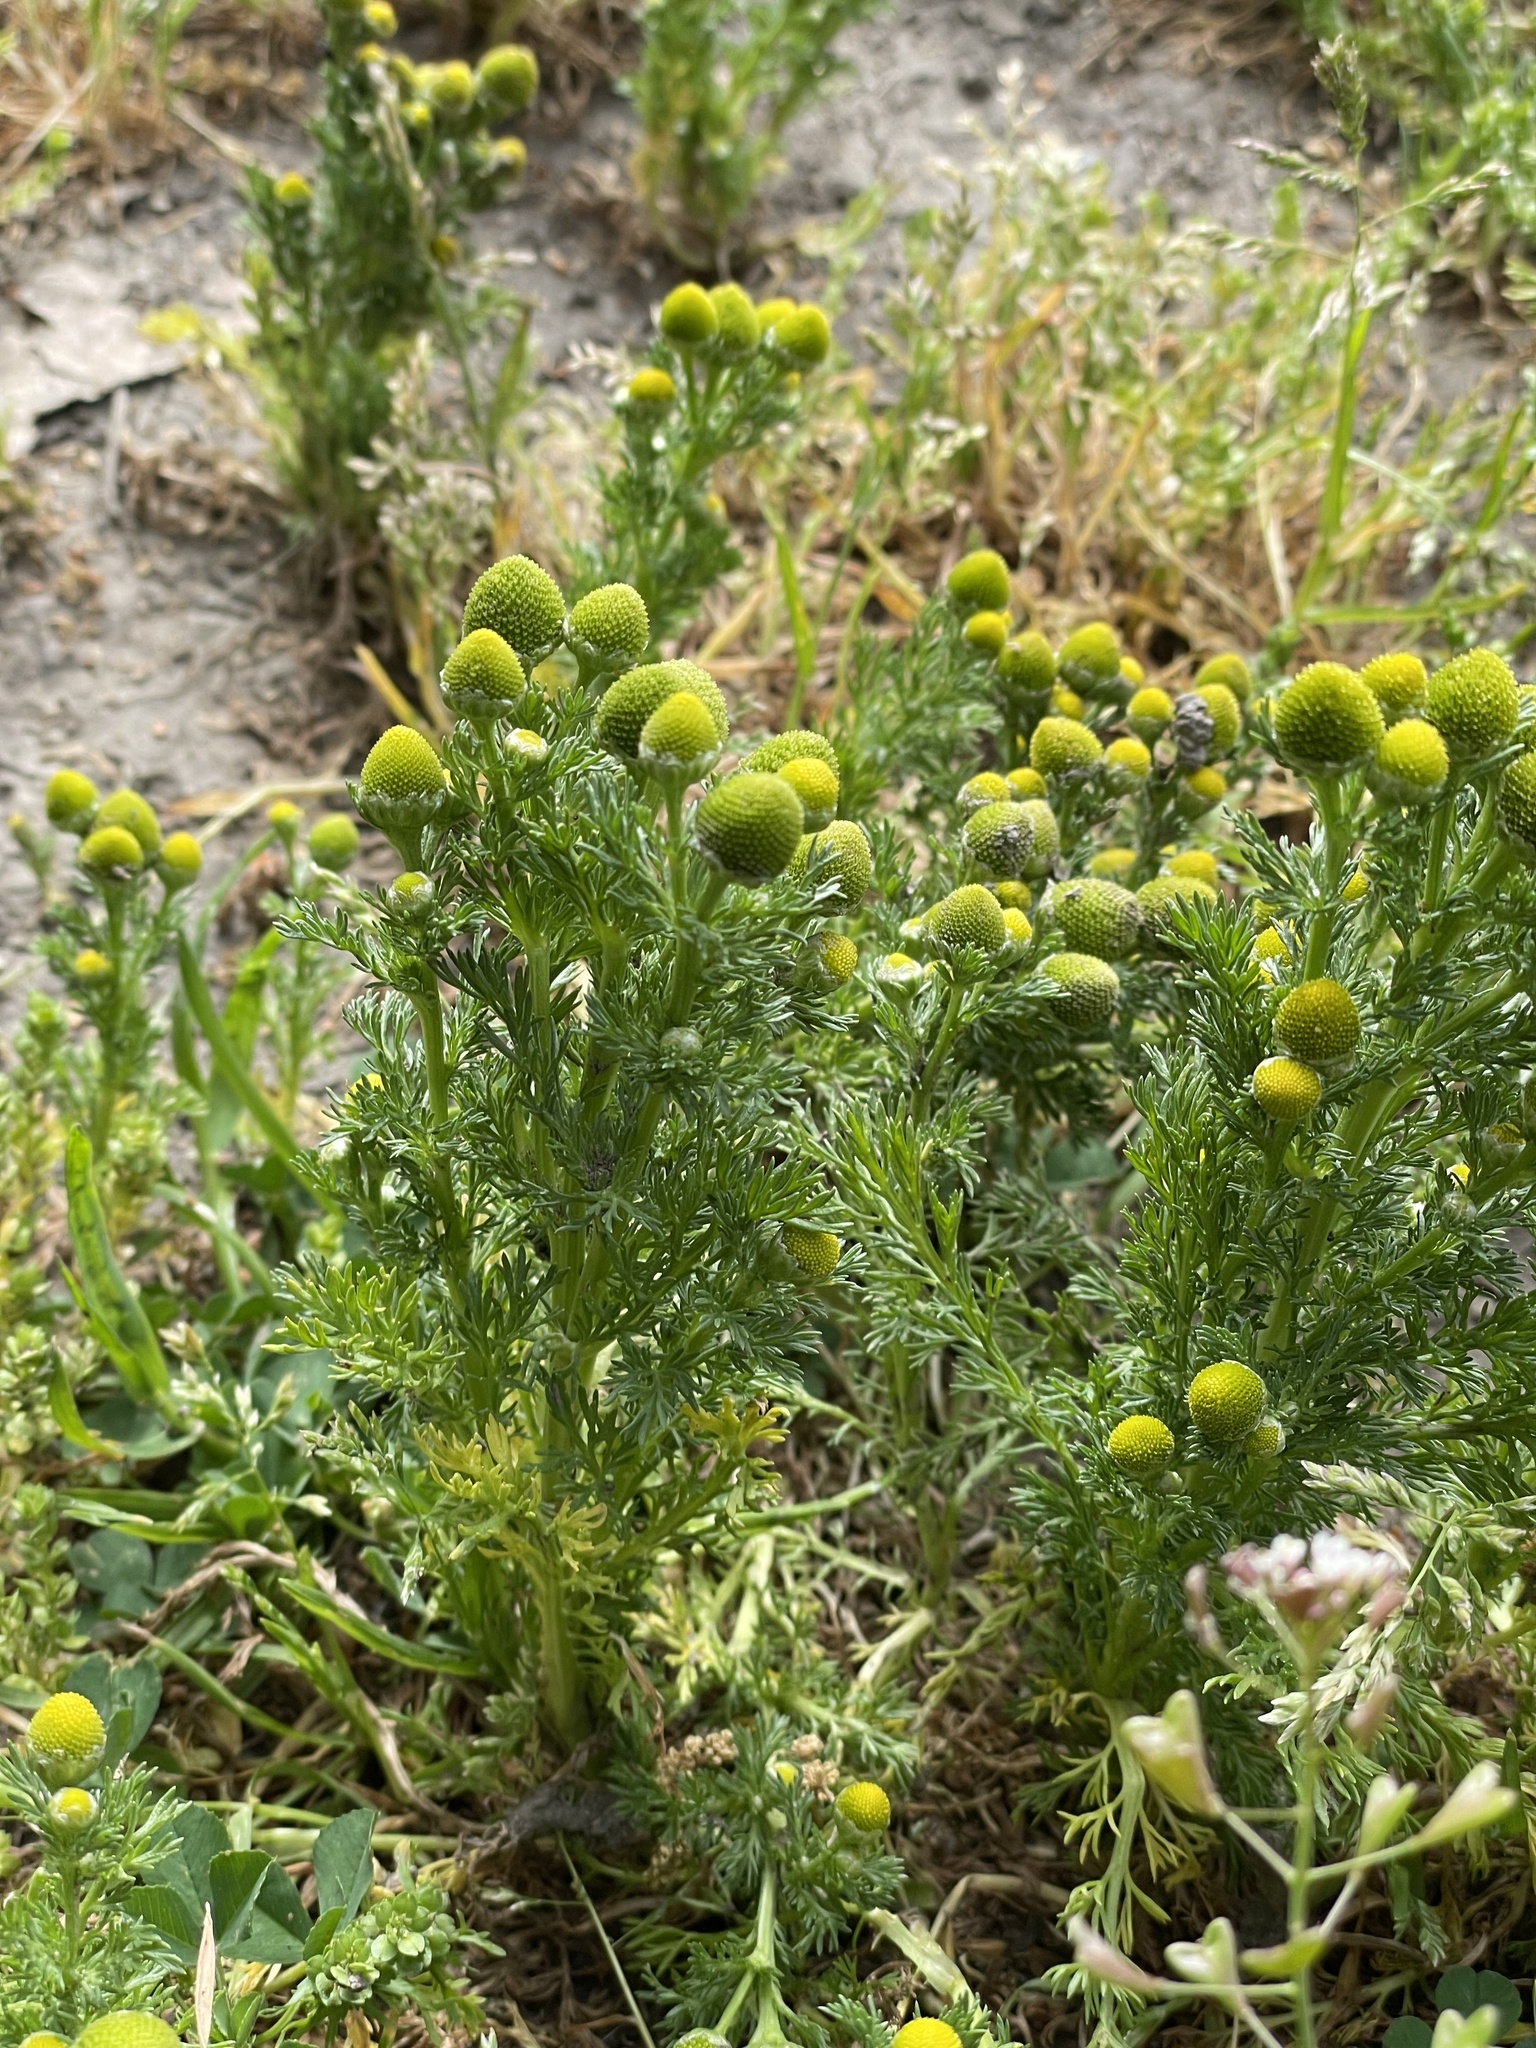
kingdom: Plantae
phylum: Tracheophyta
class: Magnoliopsida
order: Asterales
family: Asteraceae
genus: Matricaria
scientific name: Matricaria discoidea
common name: Disc mayweed
